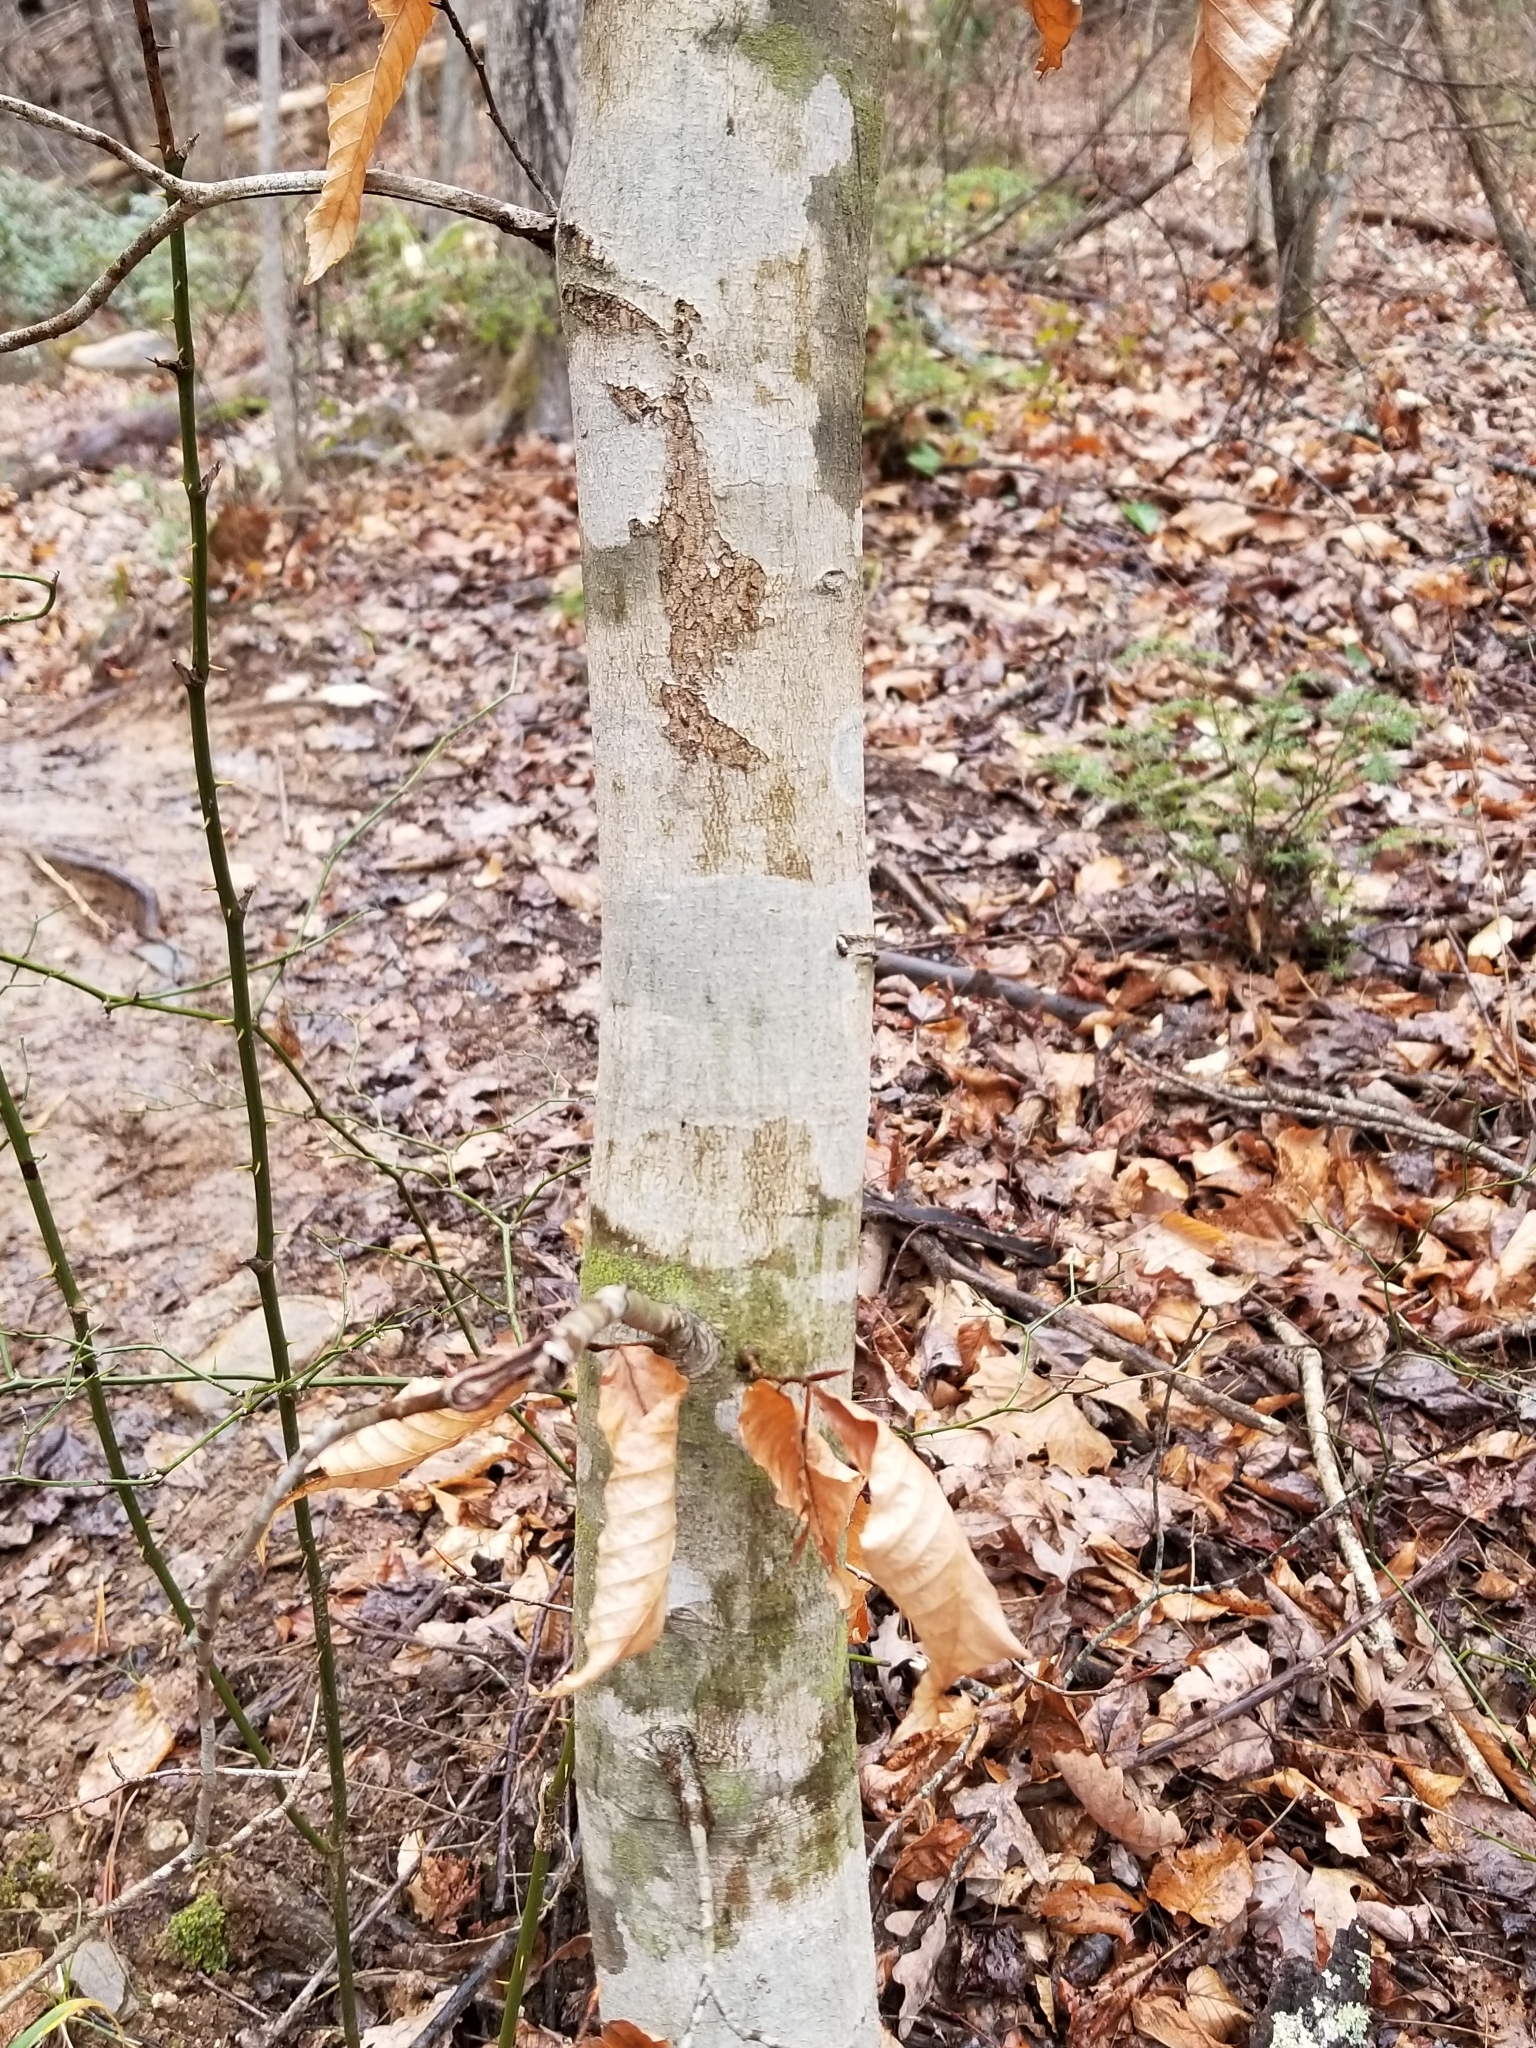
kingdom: Plantae
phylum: Tracheophyta
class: Magnoliopsida
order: Fagales
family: Fagaceae
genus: Fagus
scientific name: Fagus grandifolia
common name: American beech
